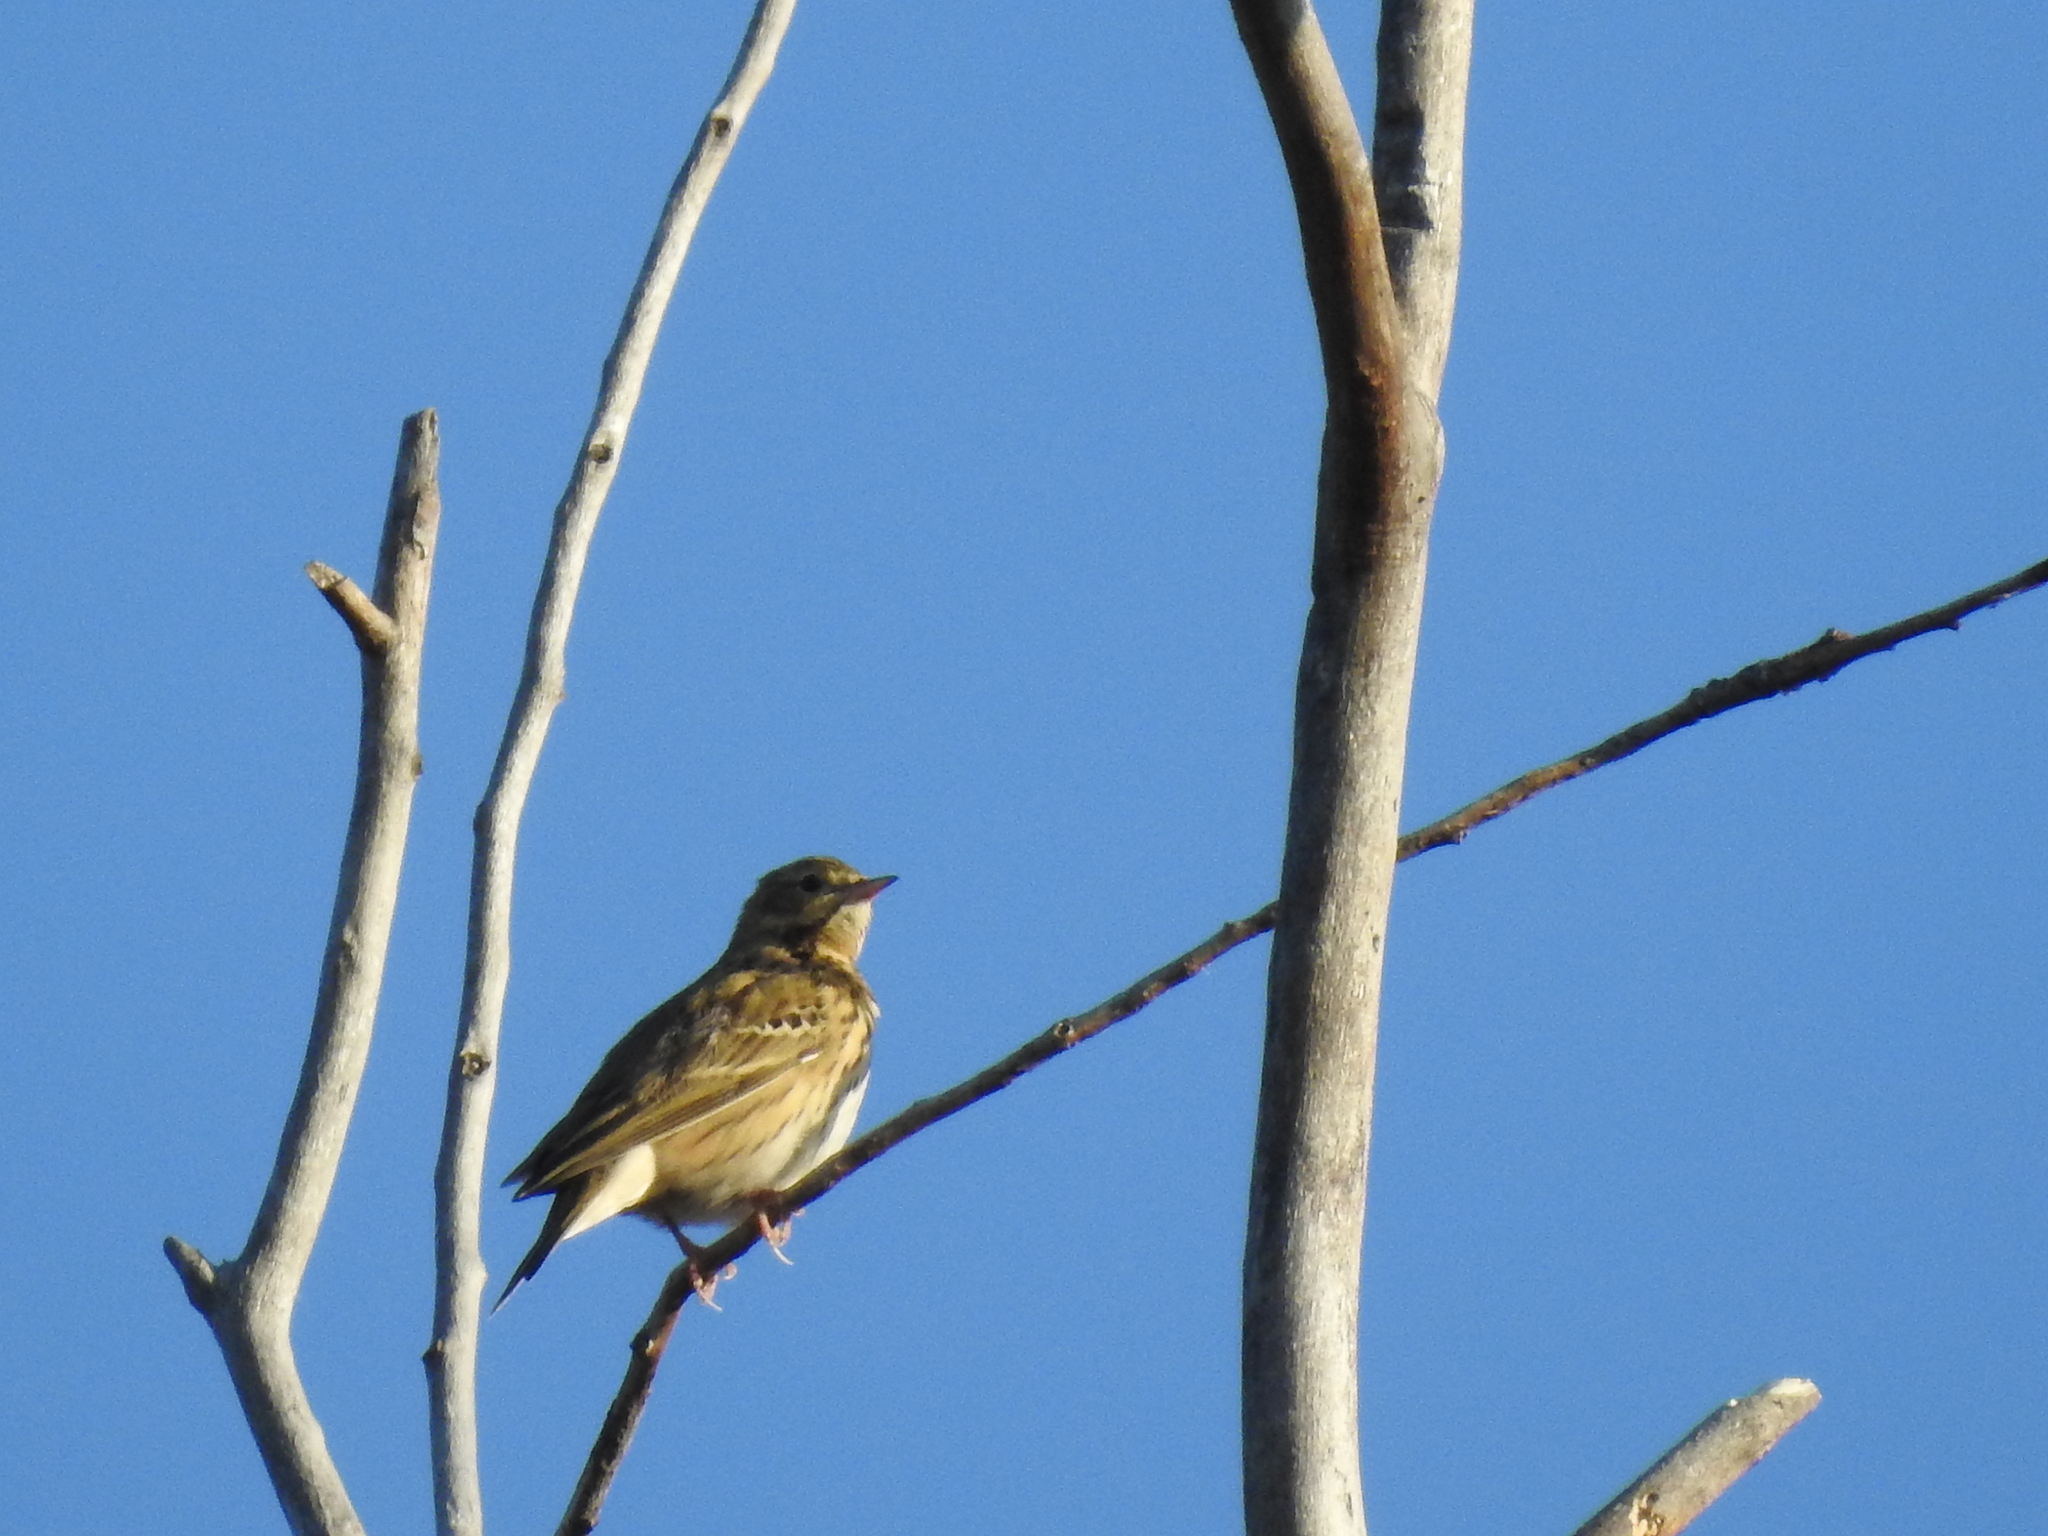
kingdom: Animalia
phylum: Chordata
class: Aves
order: Passeriformes
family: Motacillidae
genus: Anthus
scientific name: Anthus trivialis
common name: Tree pipit
